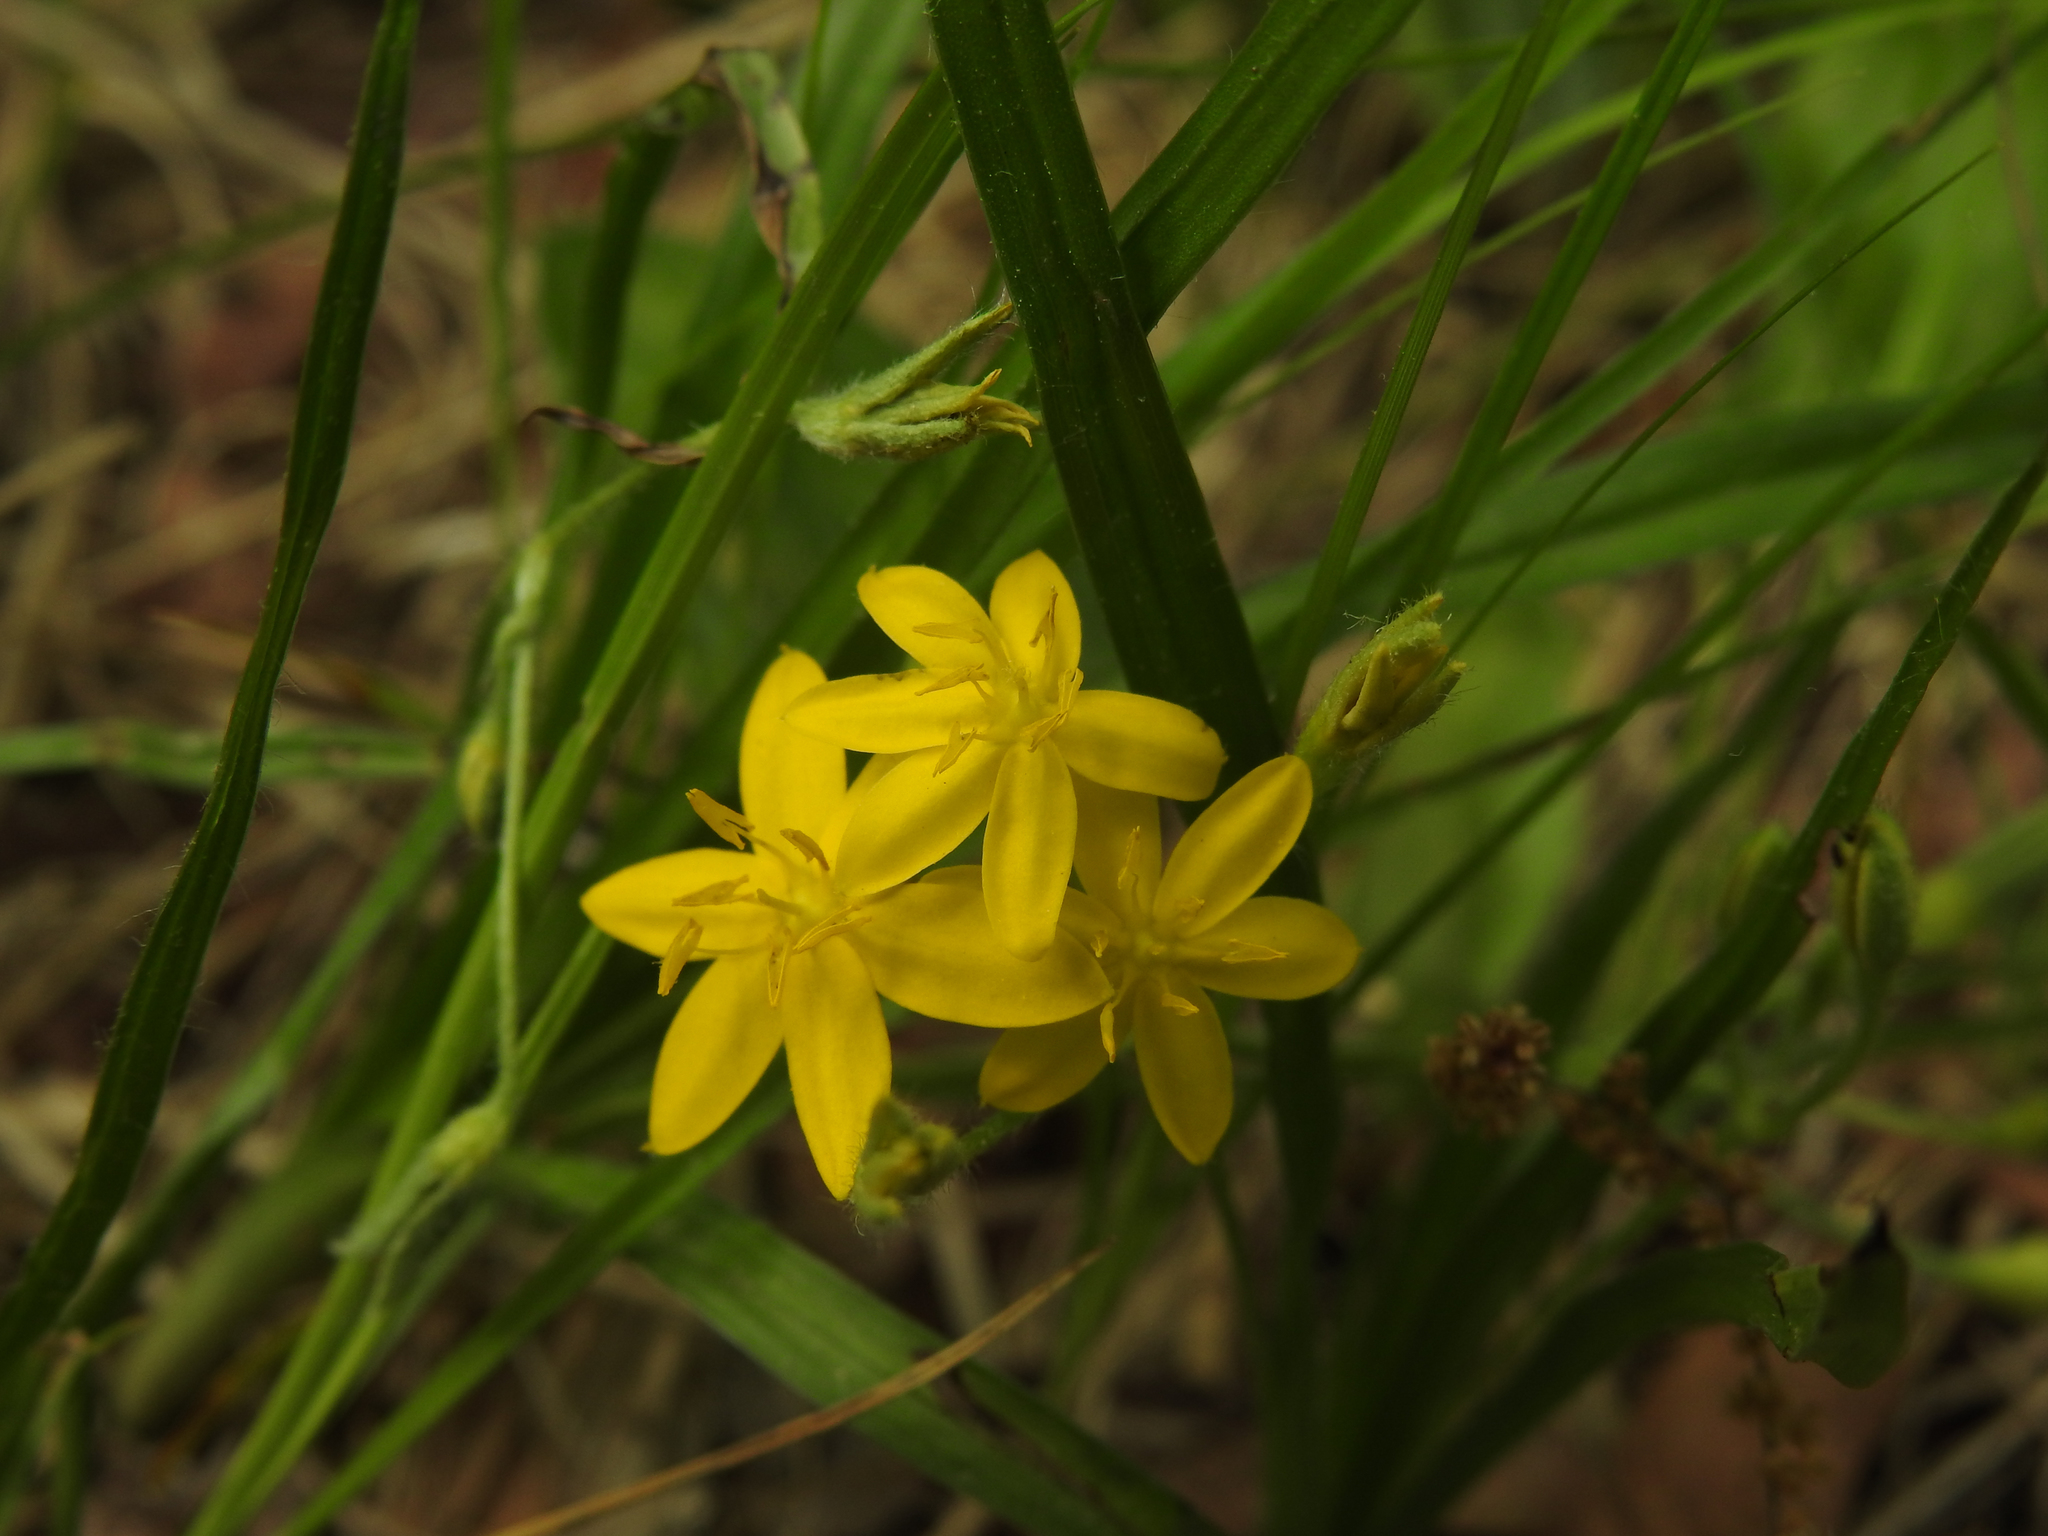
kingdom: Plantae
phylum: Tracheophyta
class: Liliopsida
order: Asparagales
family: Hypoxidaceae
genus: Hypoxis
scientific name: Hypoxis hirsuta
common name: Common goldstar
